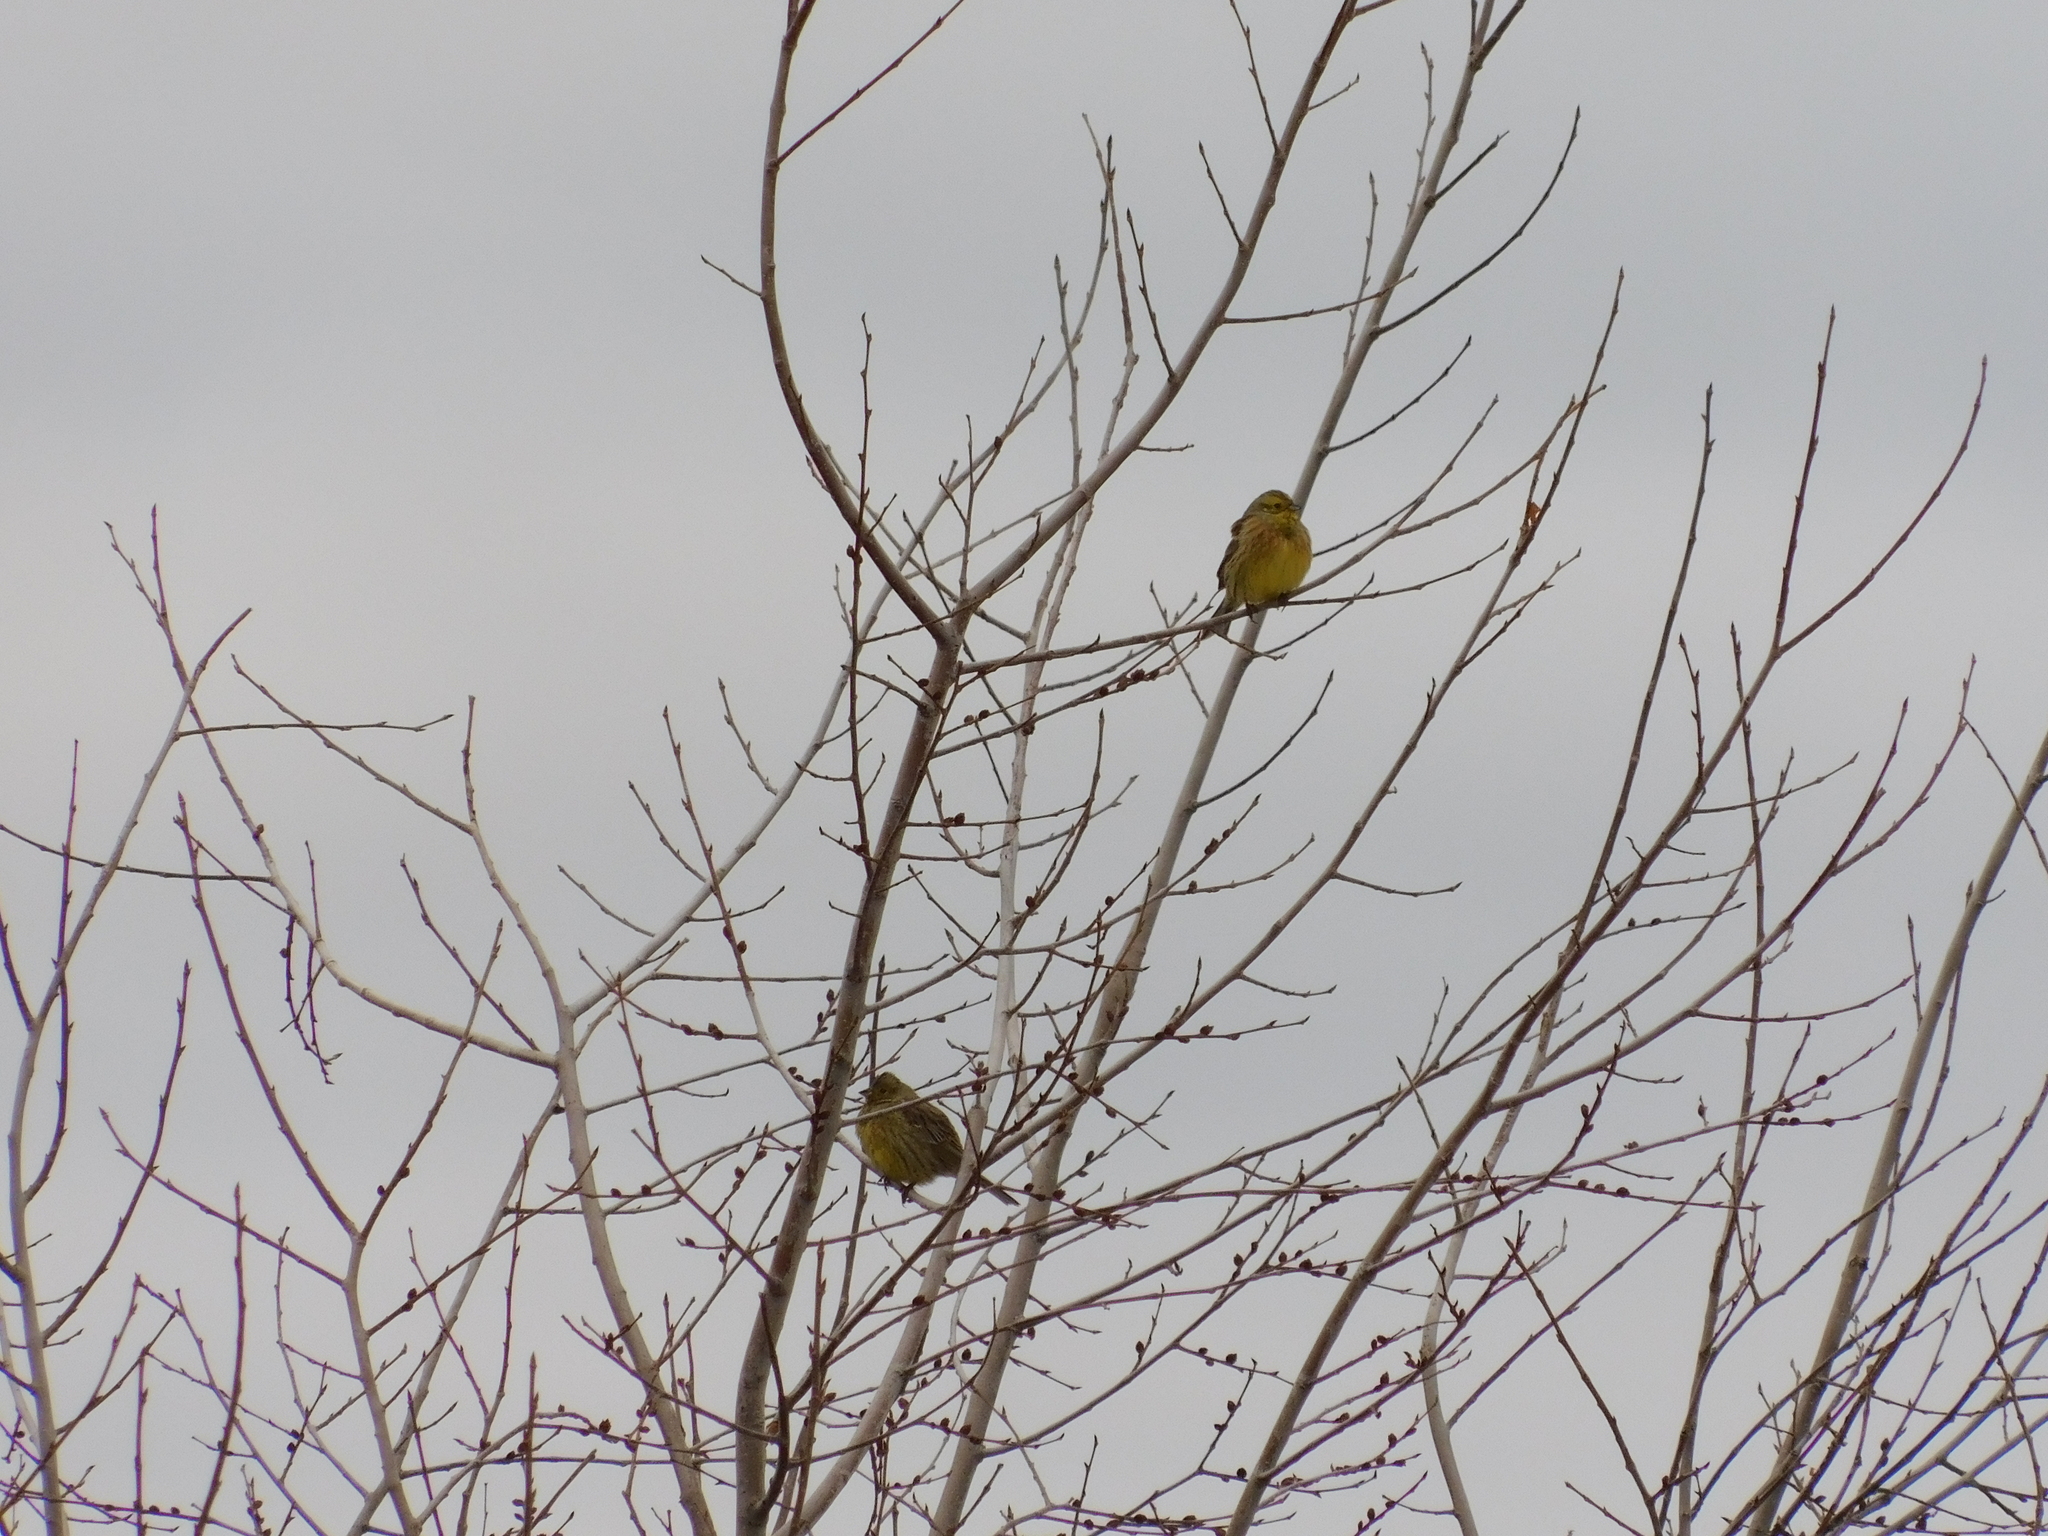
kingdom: Animalia
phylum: Chordata
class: Aves
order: Passeriformes
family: Emberizidae
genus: Emberiza
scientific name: Emberiza citrinella
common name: Yellowhammer
